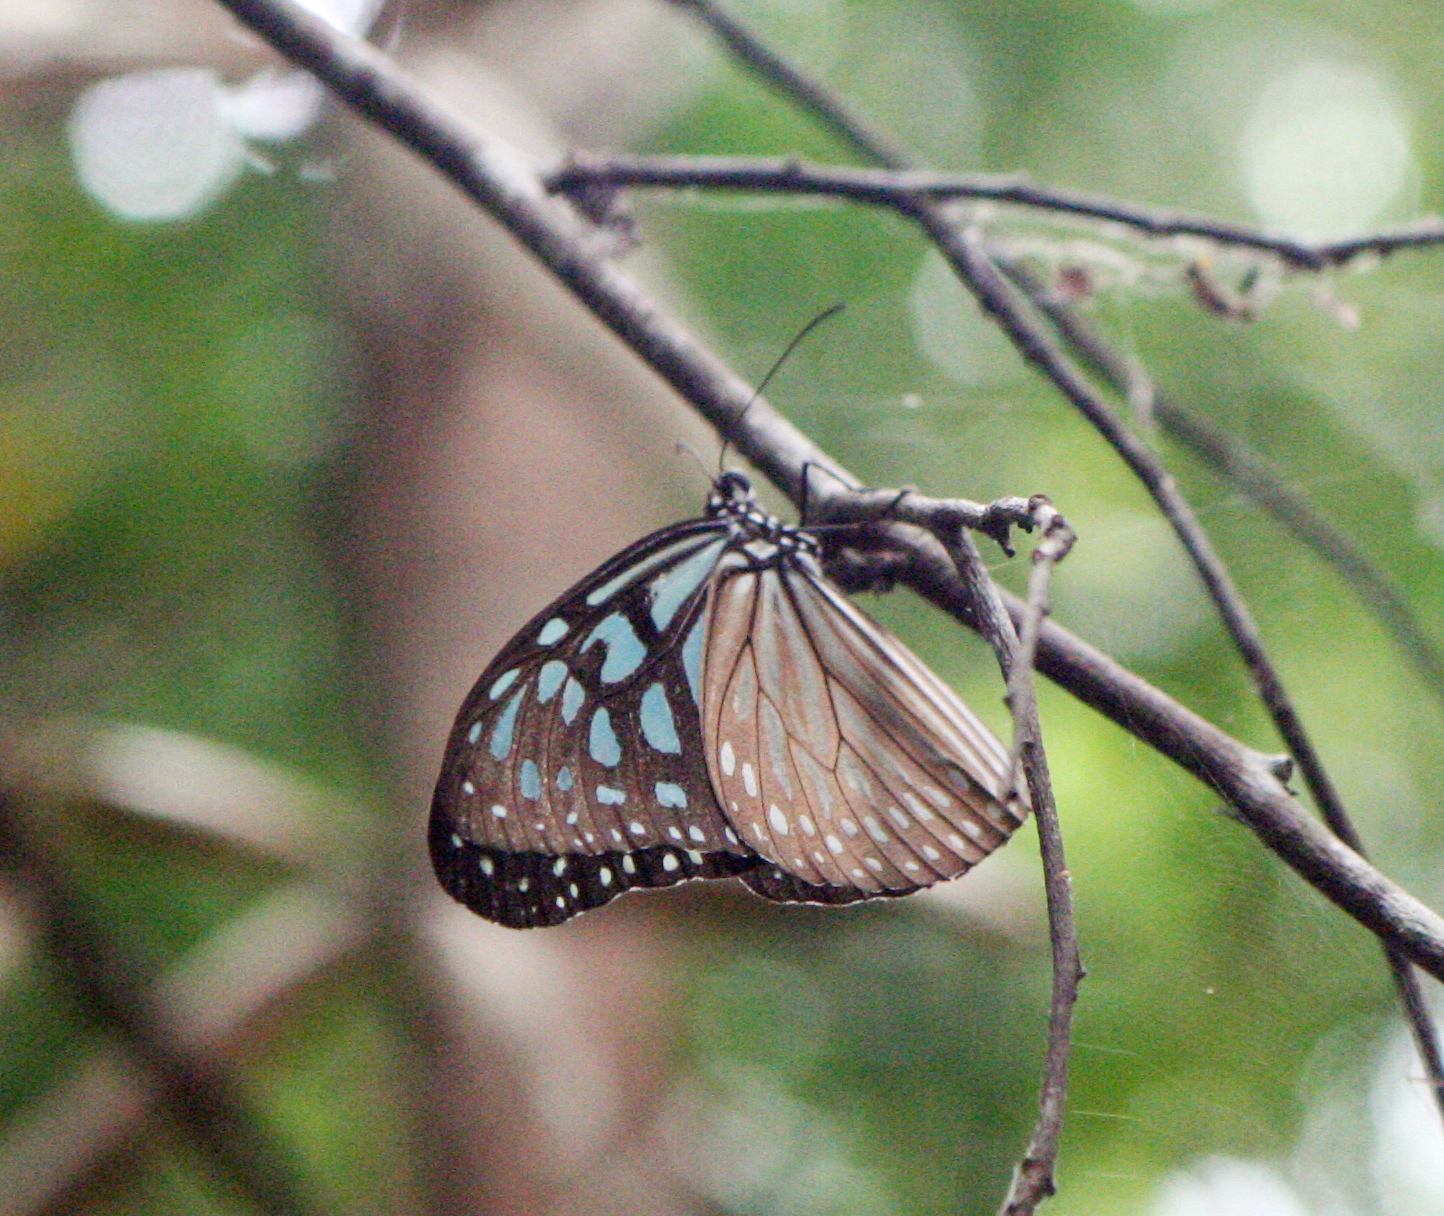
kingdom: Animalia
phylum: Arthropoda
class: Insecta
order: Lepidoptera
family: Nymphalidae
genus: Ideopsis
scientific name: Ideopsis vulgaris
